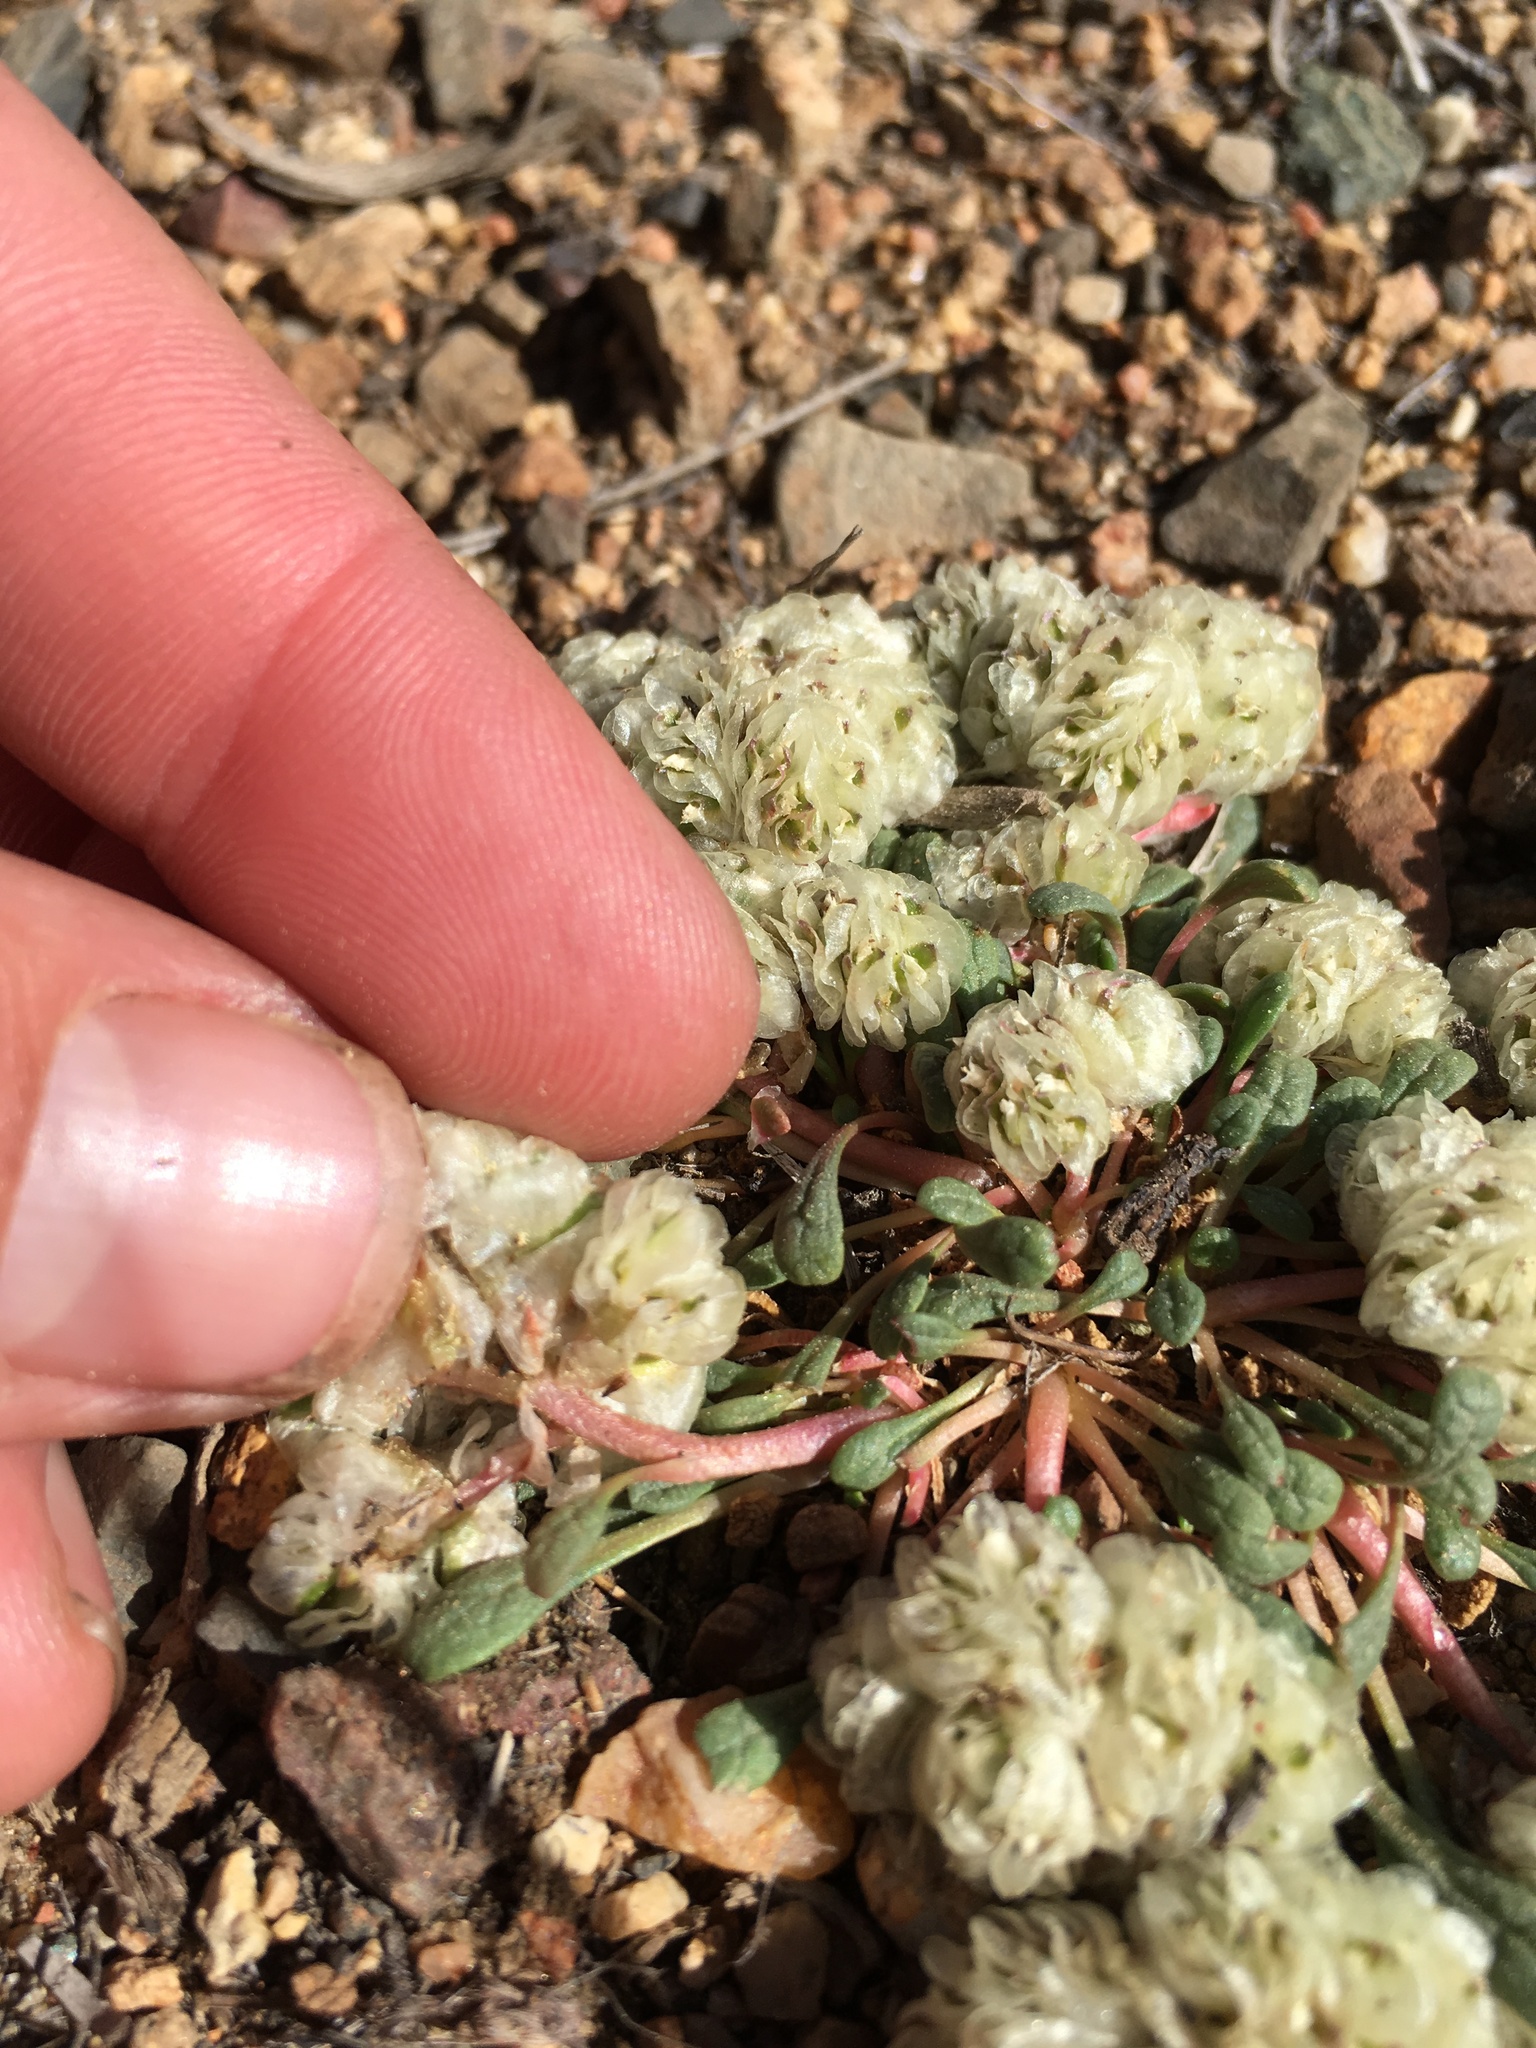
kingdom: Plantae
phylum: Tracheophyta
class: Magnoliopsida
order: Caryophyllales
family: Montiaceae
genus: Calyptridium
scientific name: Calyptridium umbellatum
